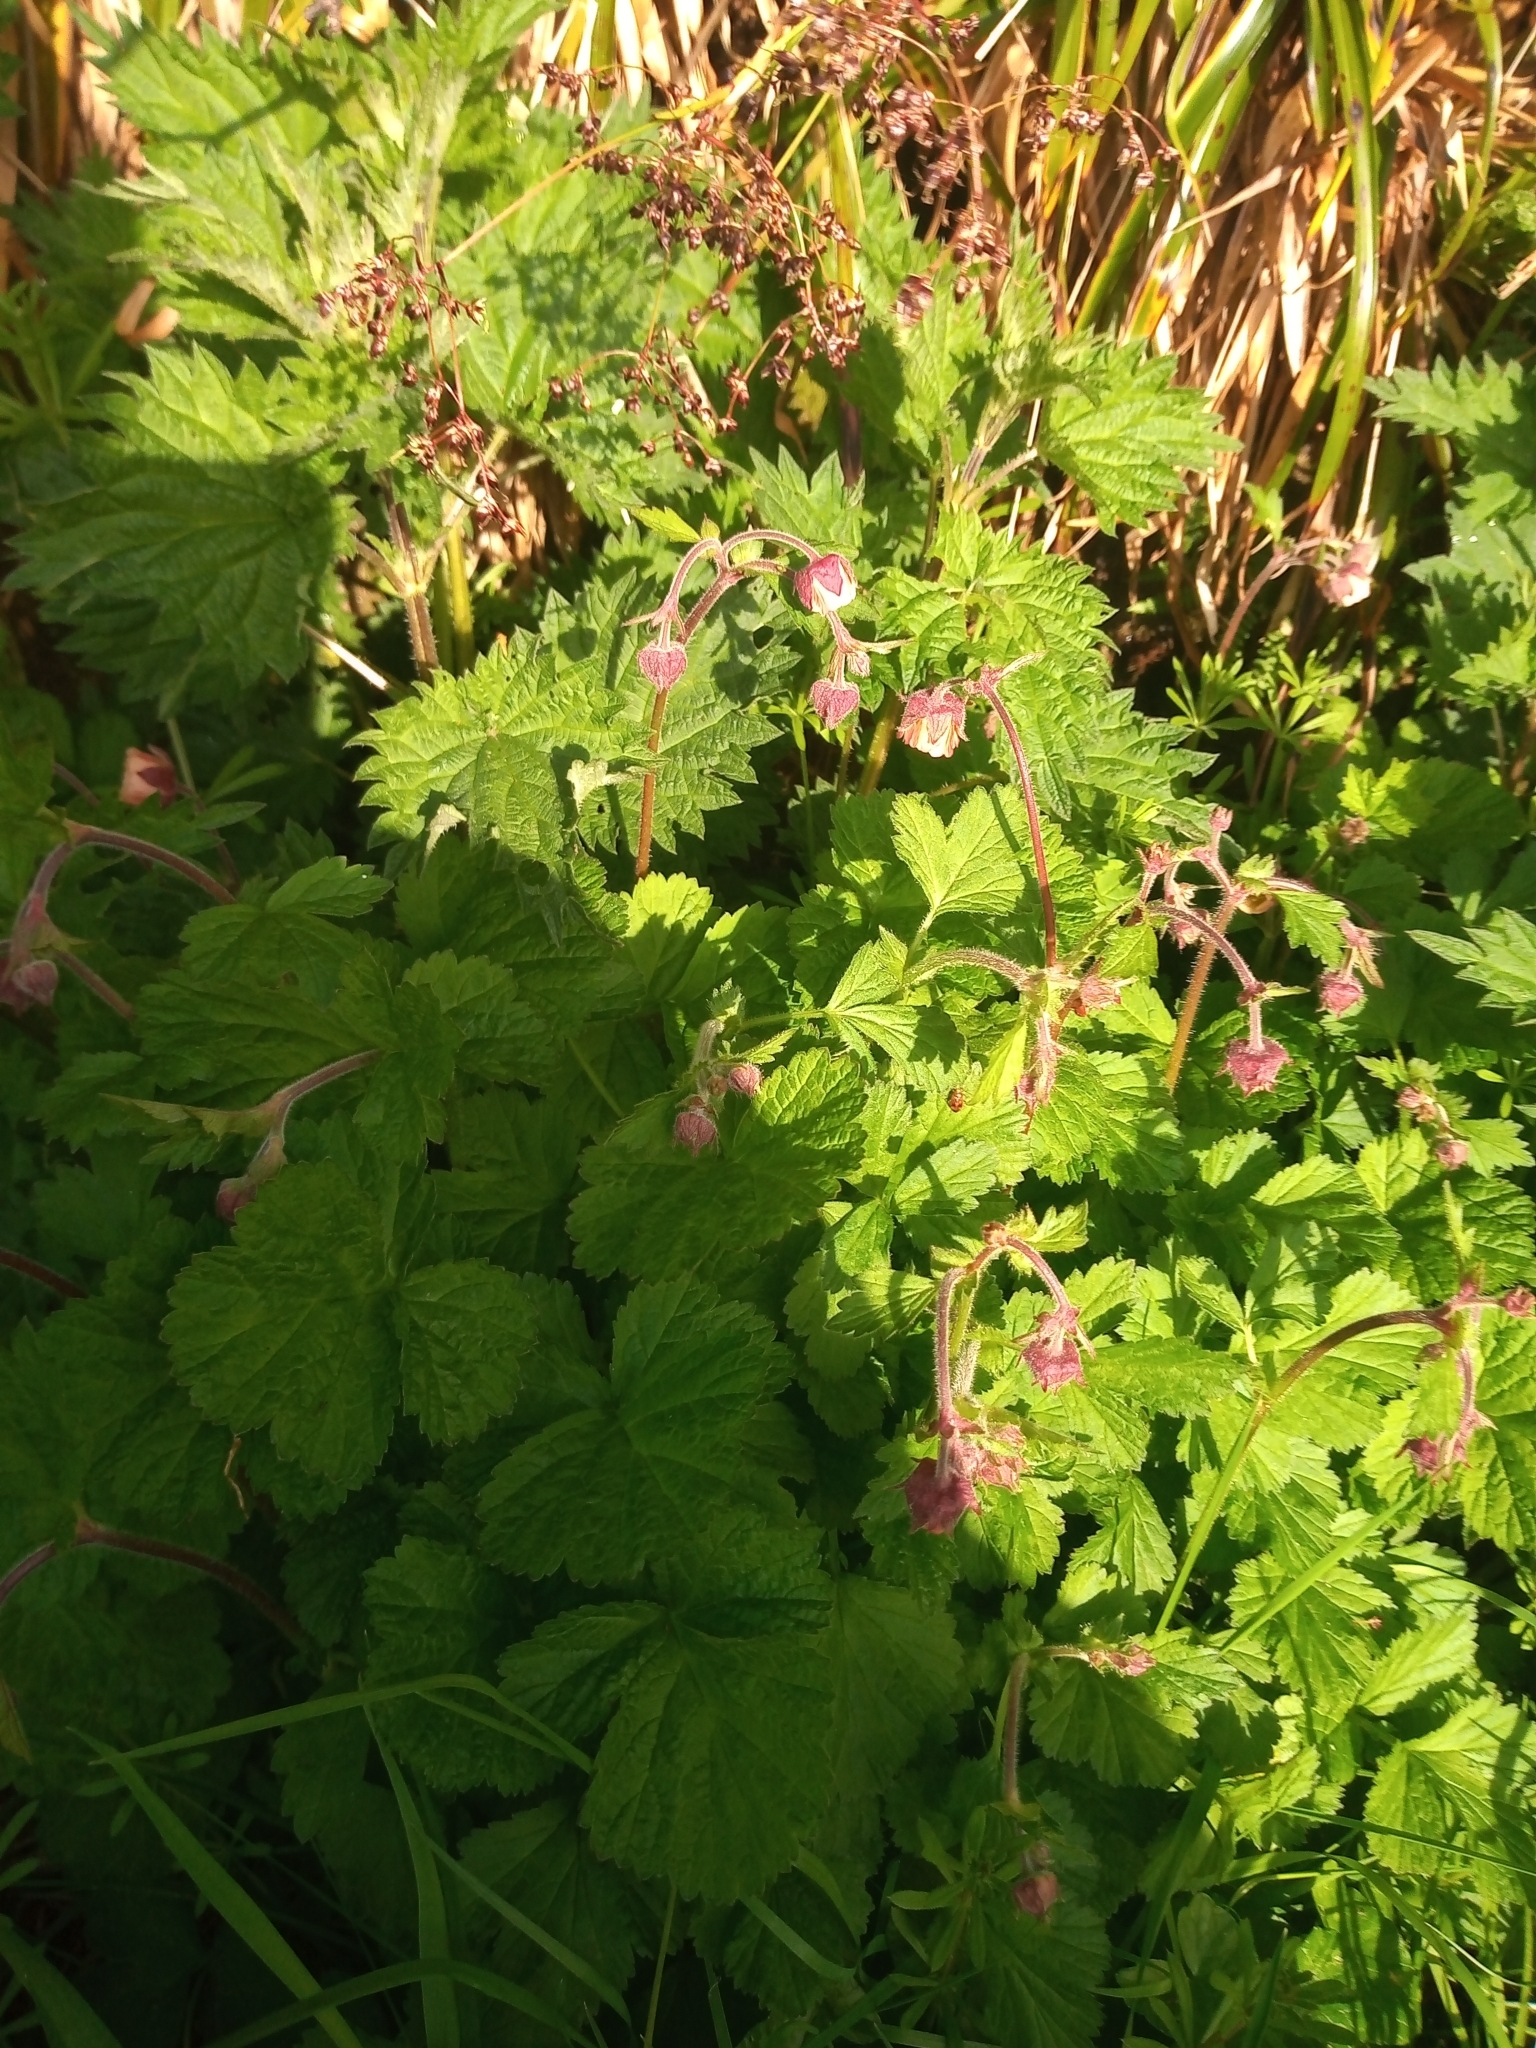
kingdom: Plantae
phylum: Tracheophyta
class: Magnoliopsida
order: Rosales
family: Rosaceae
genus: Geum
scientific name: Geum rivale
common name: Water avens
